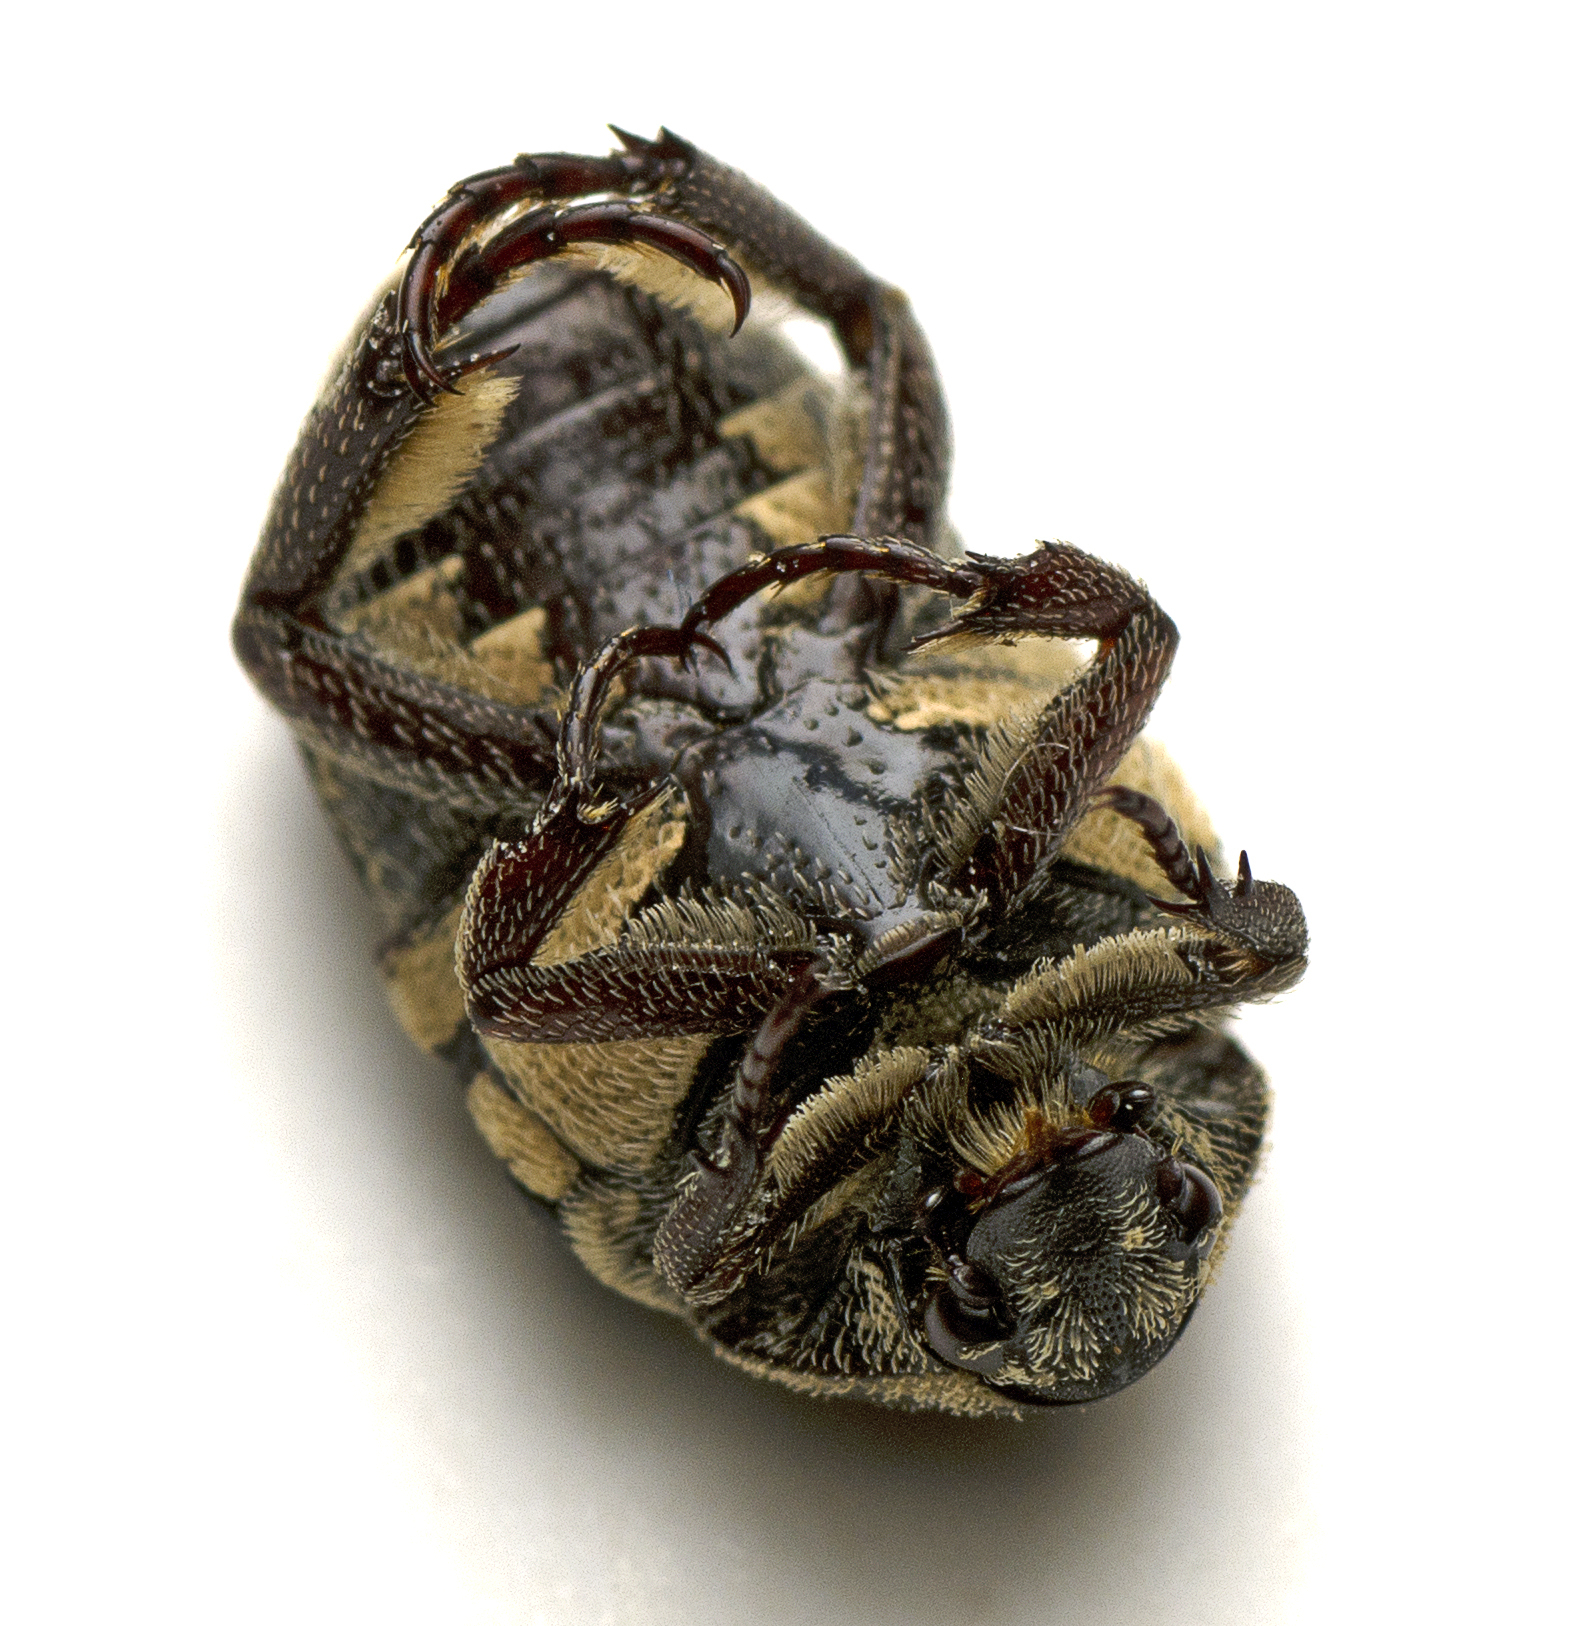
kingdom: Animalia
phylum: Arthropoda
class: Insecta
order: Coleoptera
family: Scarabaeidae
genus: Glycyphana
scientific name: Glycyphana stolata
